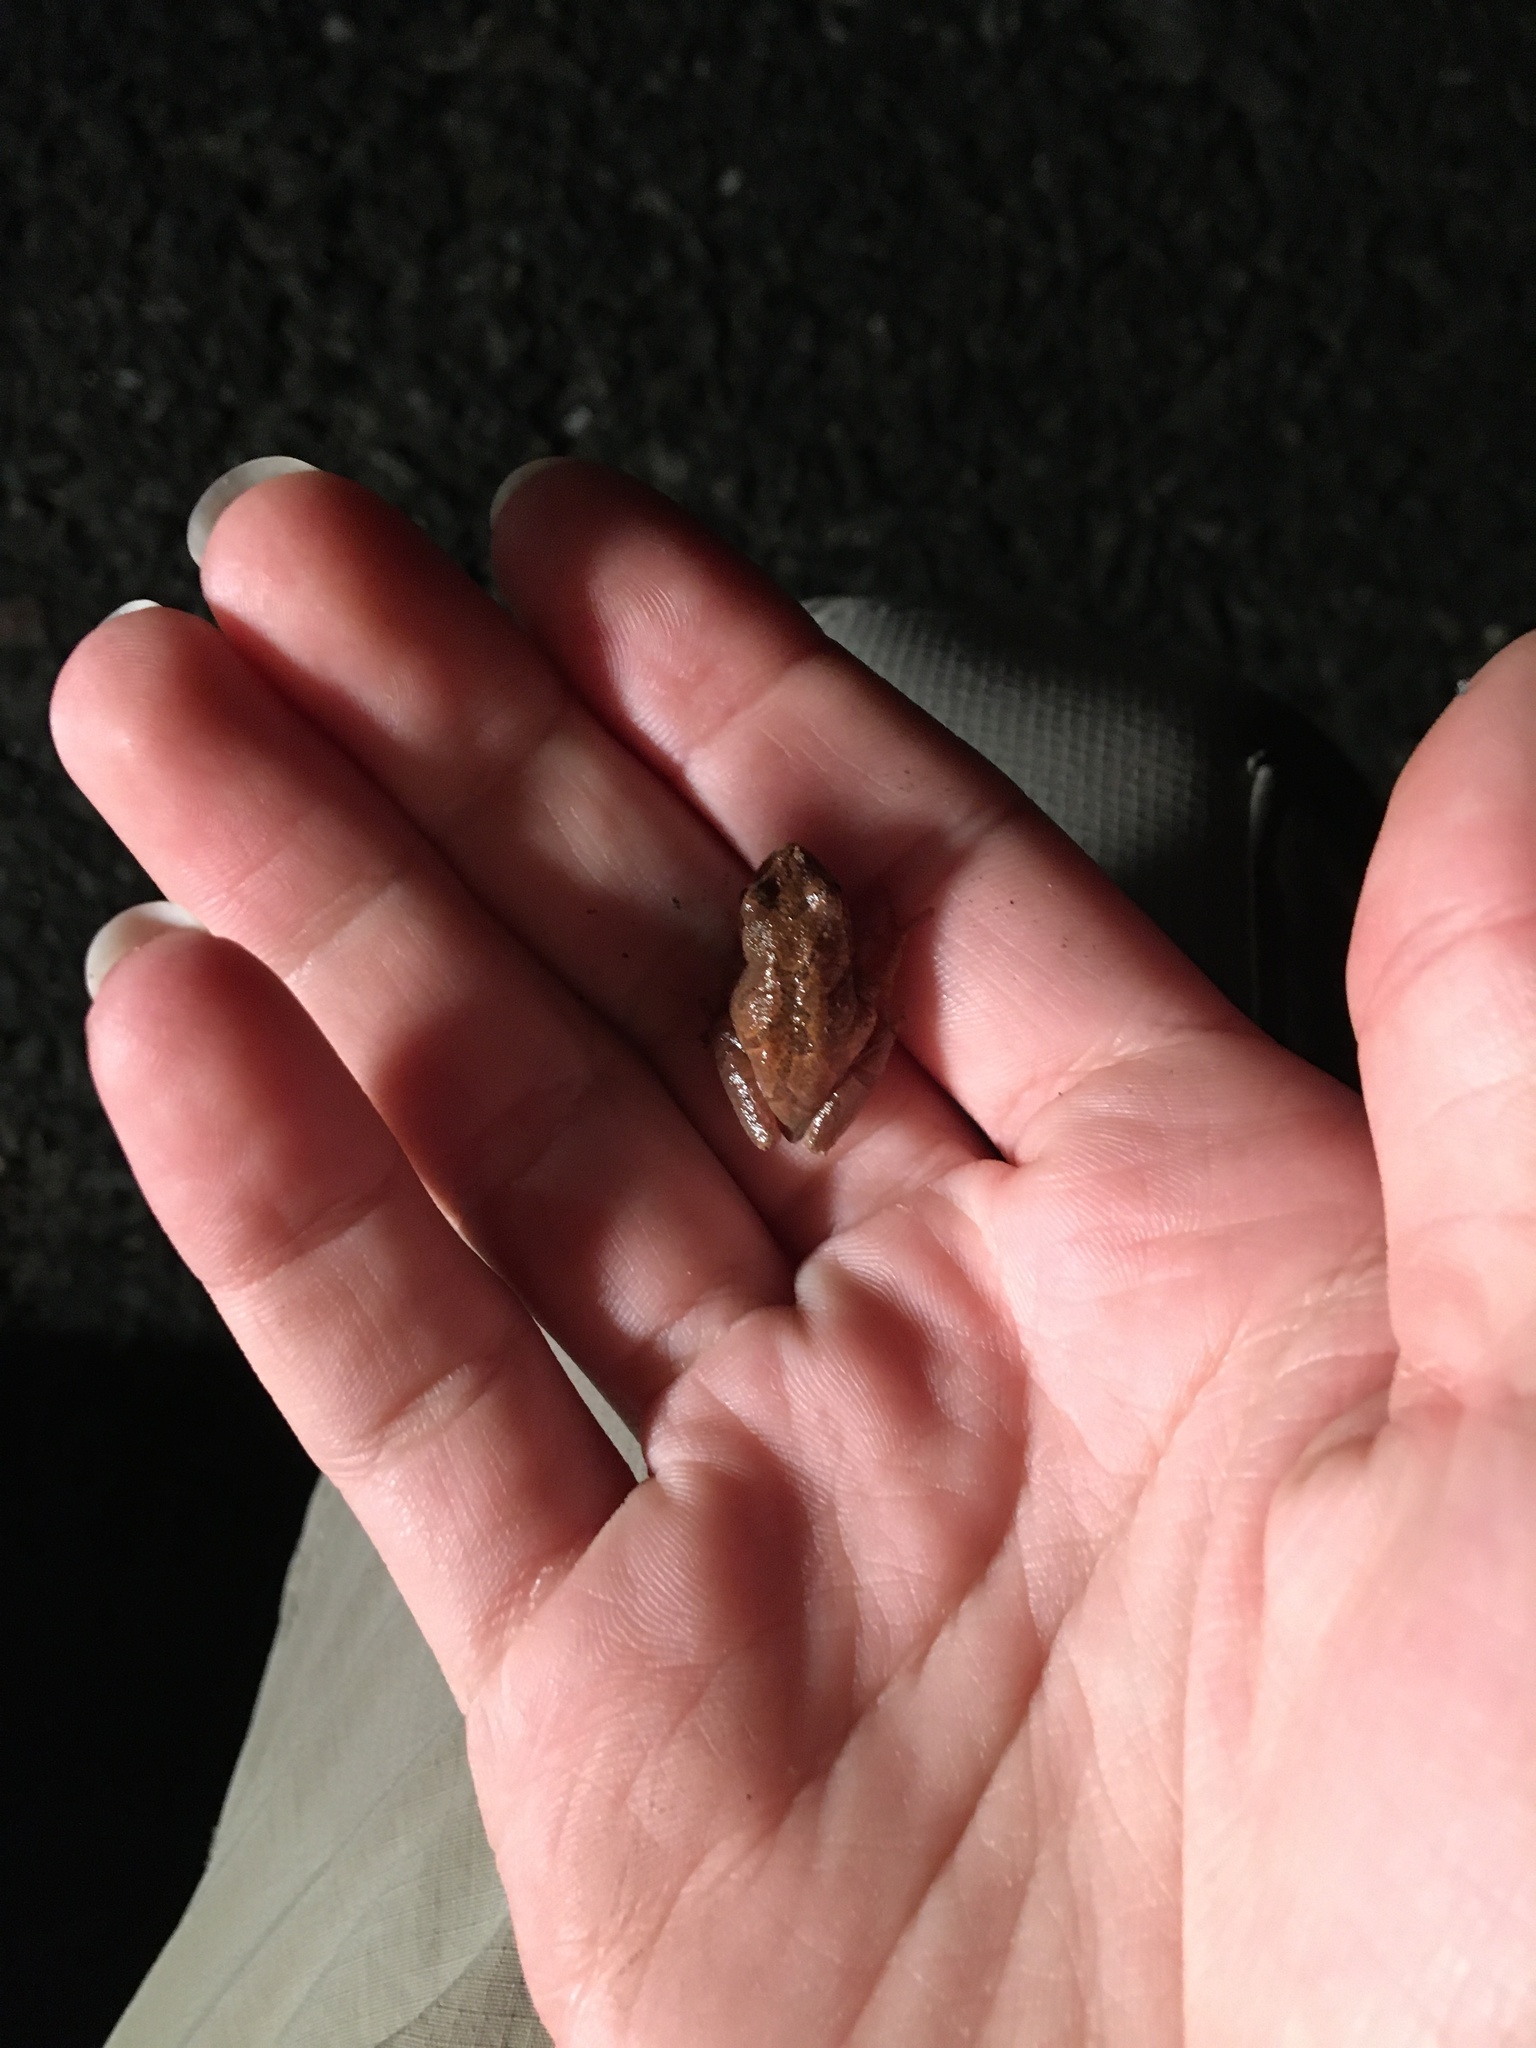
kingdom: Animalia
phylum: Chordata
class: Amphibia
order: Anura
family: Hylidae
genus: Pseudacris
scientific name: Pseudacris crucifer
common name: Spring peeper
